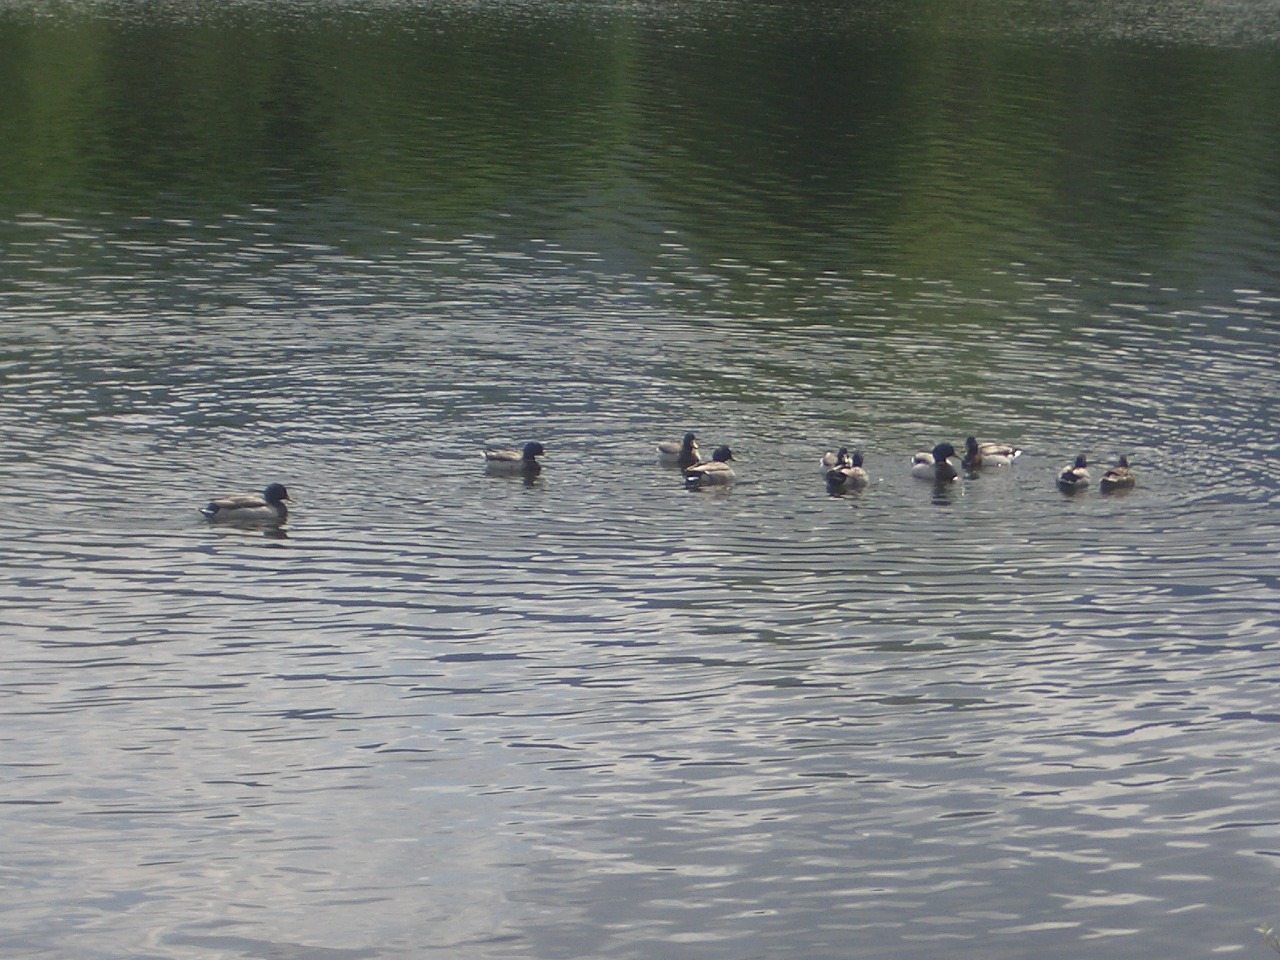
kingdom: Animalia
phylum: Chordata
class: Aves
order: Anseriformes
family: Anatidae
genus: Anas
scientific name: Anas platyrhynchos
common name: Mallard
